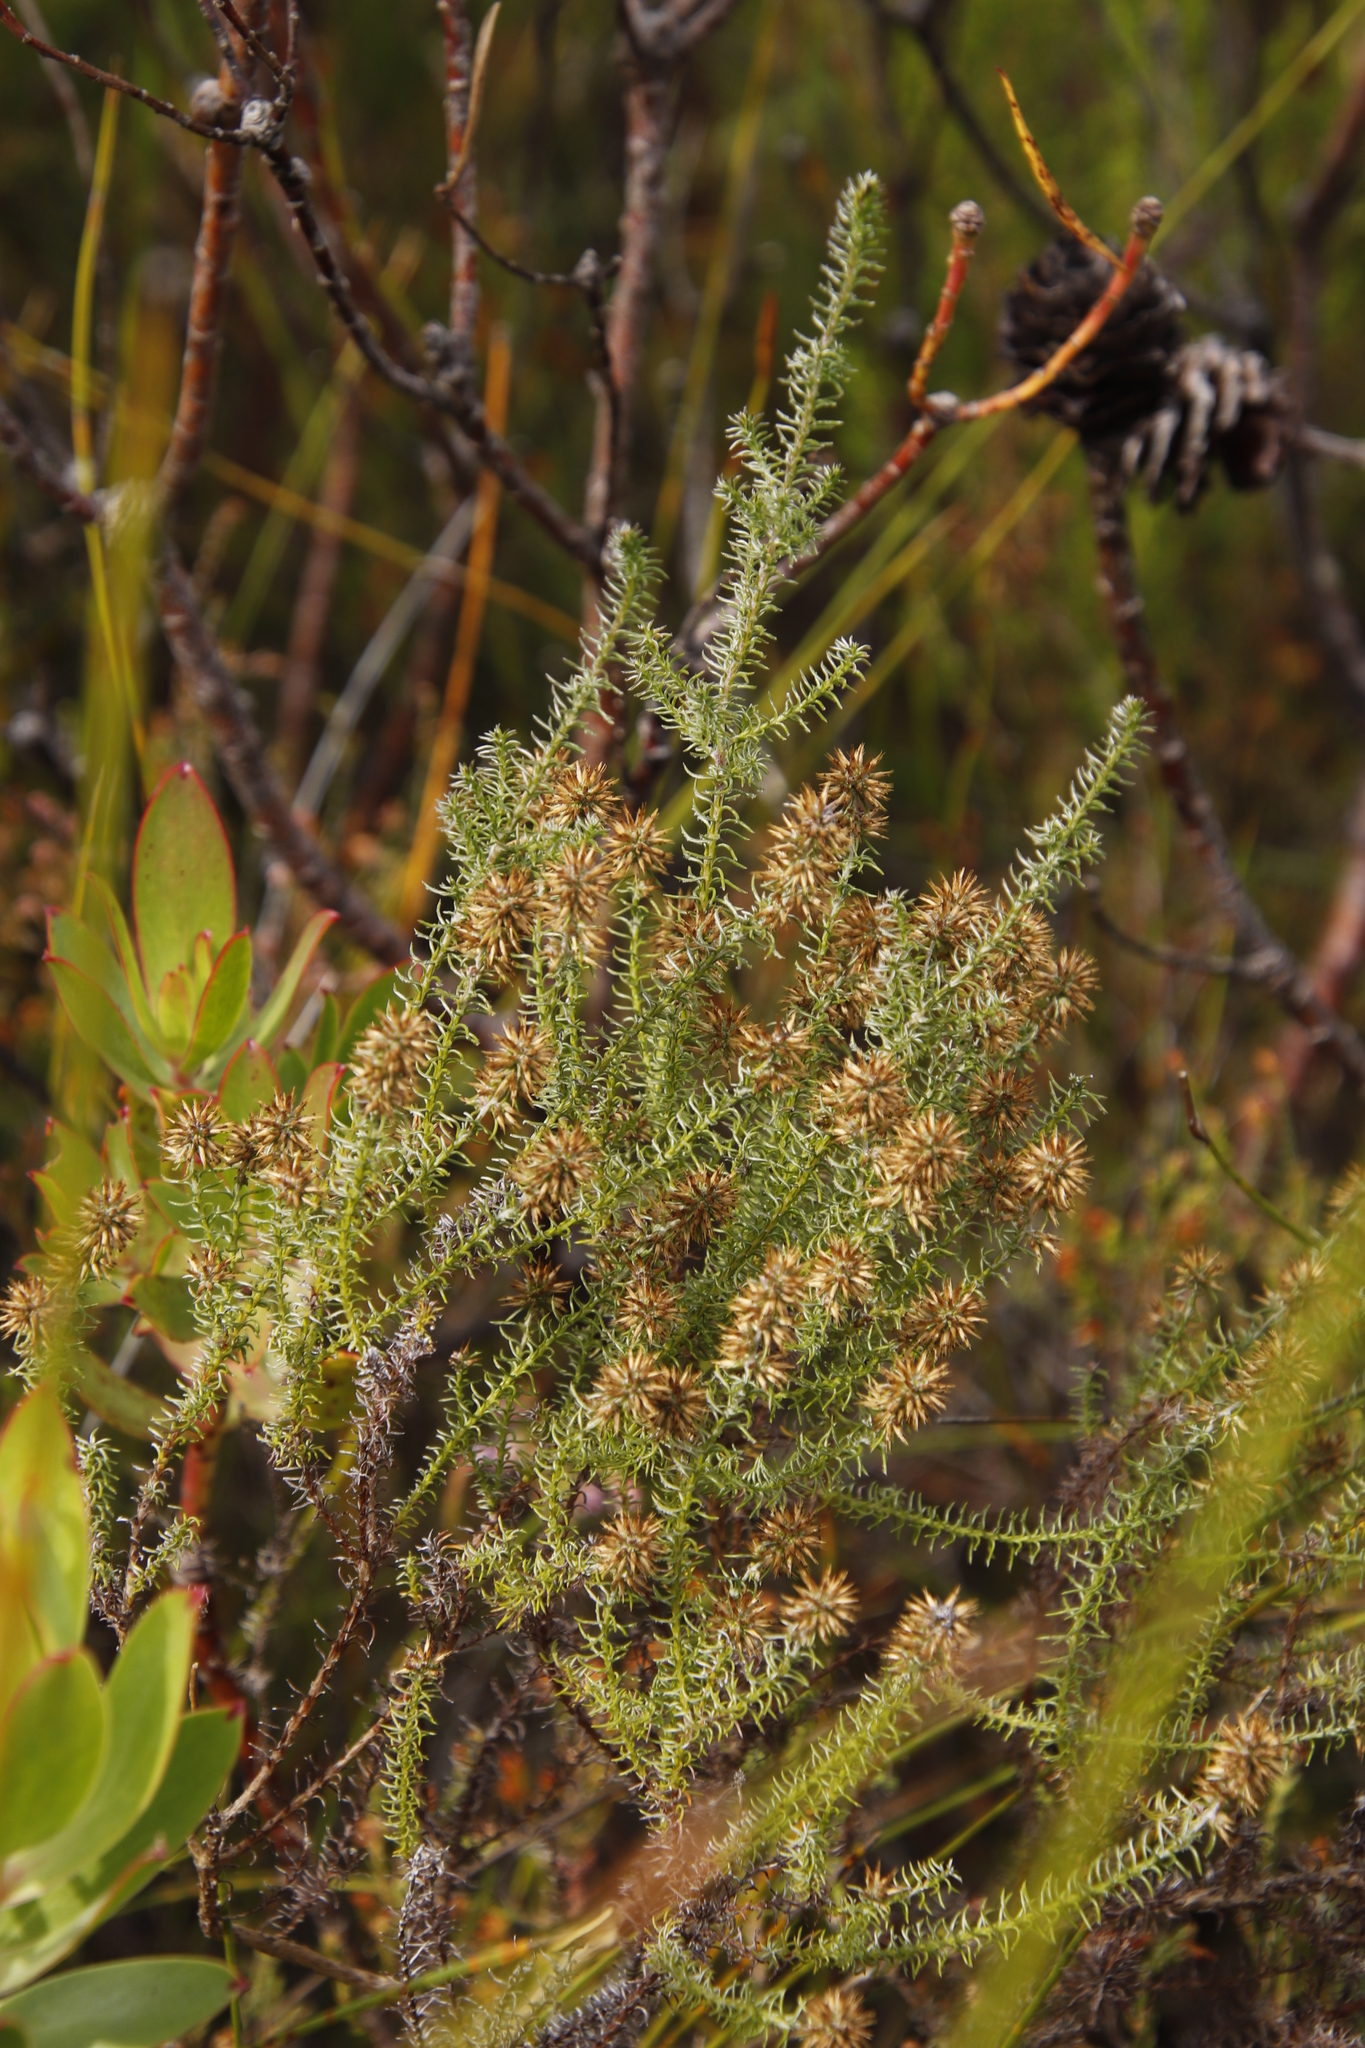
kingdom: Plantae
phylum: Tracheophyta
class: Magnoliopsida
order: Asterales
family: Asteraceae
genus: Seriphium
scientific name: Seriphium cinereum
